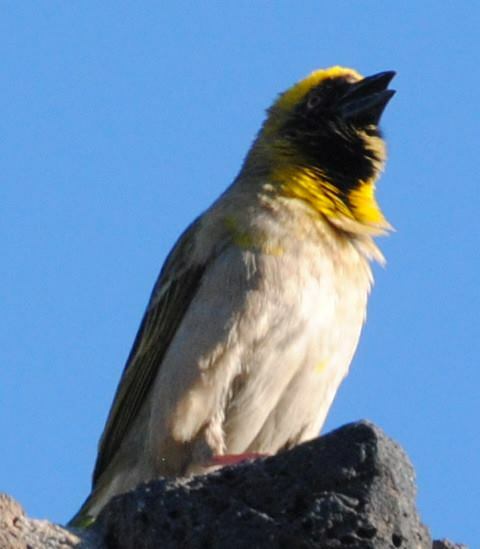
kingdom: Animalia
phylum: Chordata
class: Aves
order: Passeriformes
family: Ploceidae
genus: Ploceus
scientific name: Ploceus velatus
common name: Southern masked weaver
